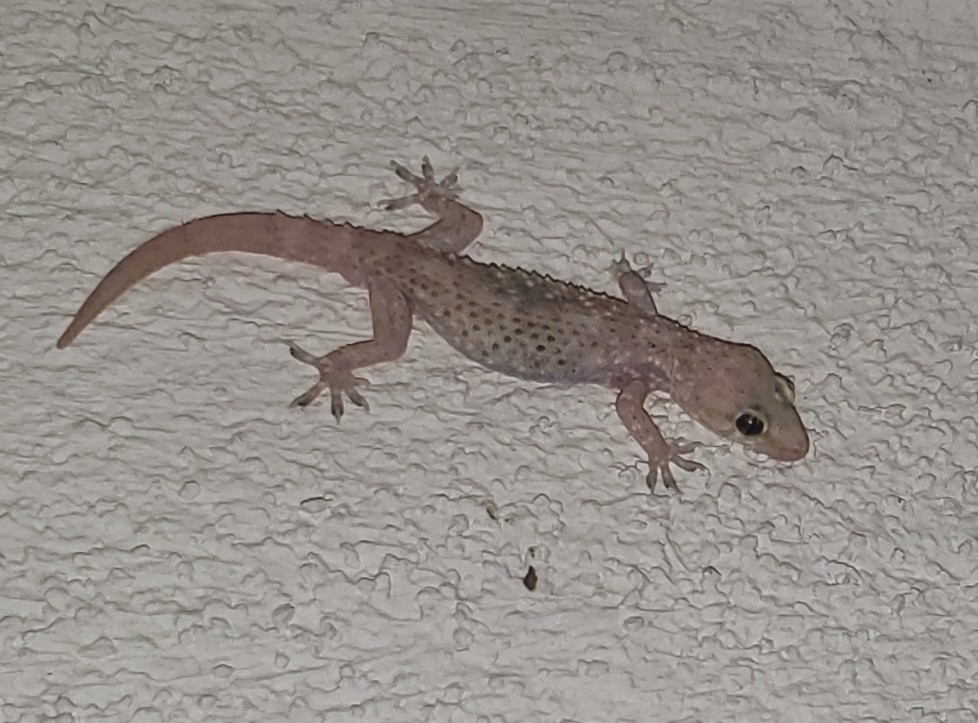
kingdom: Animalia
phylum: Chordata
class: Squamata
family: Gekkonidae
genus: Hemidactylus
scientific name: Hemidactylus turcicus
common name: Turkish gecko
